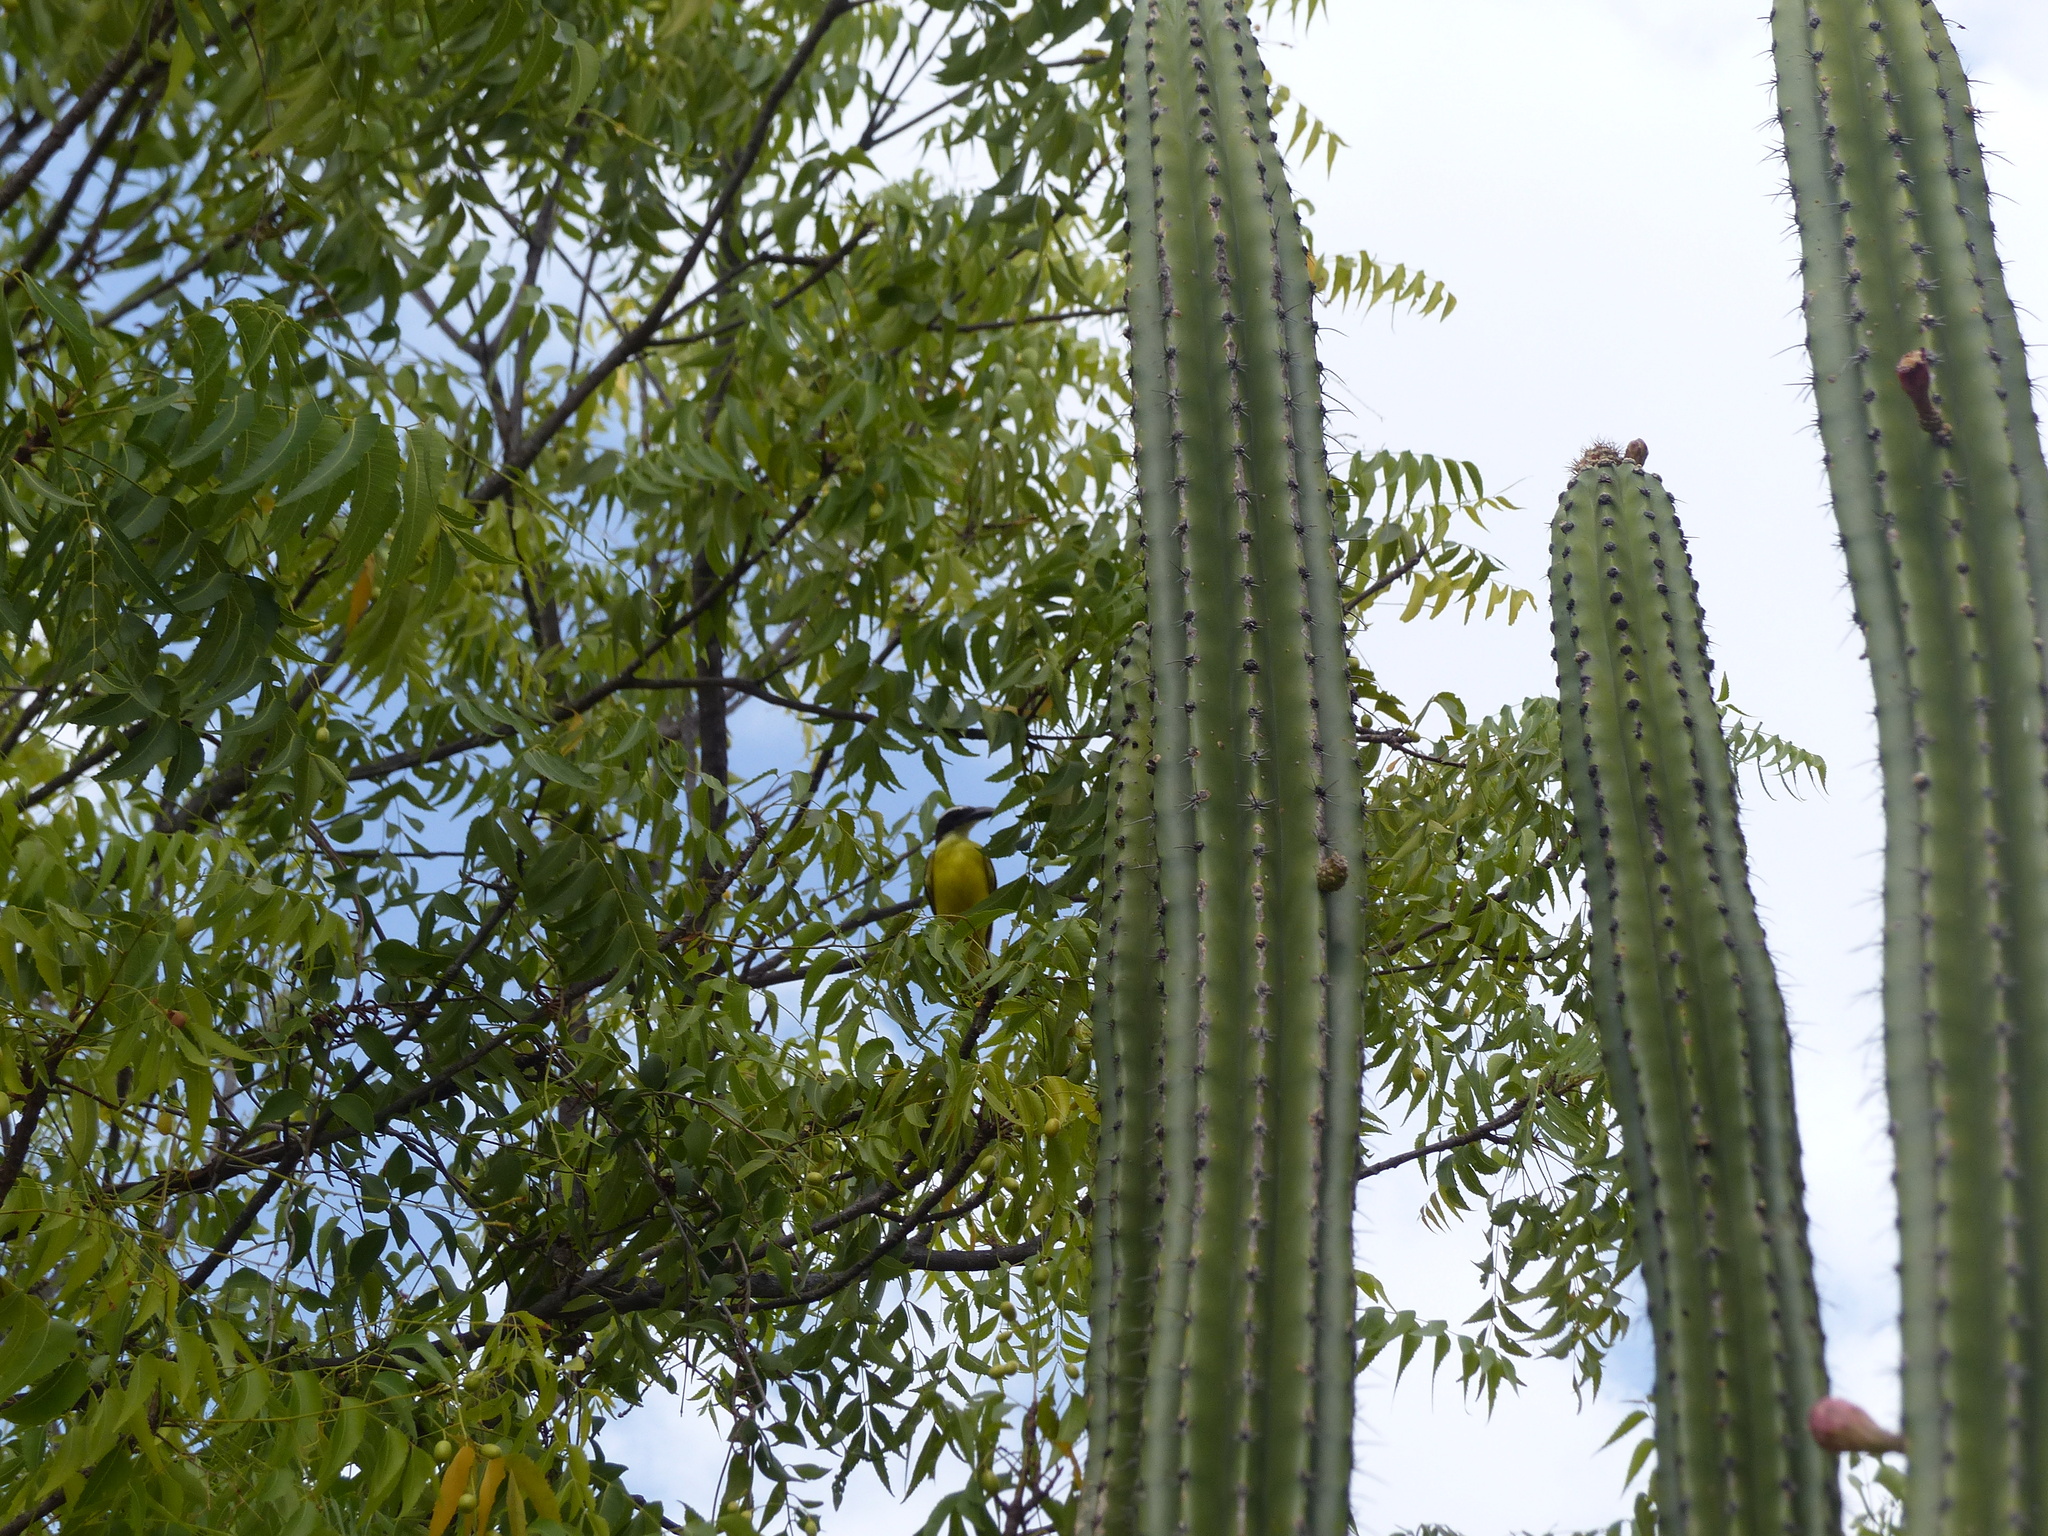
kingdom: Animalia
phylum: Chordata
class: Aves
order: Passeriformes
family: Tyrannidae
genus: Megarynchus
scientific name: Megarynchus pitangua
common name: Boat-billed flycatcher
